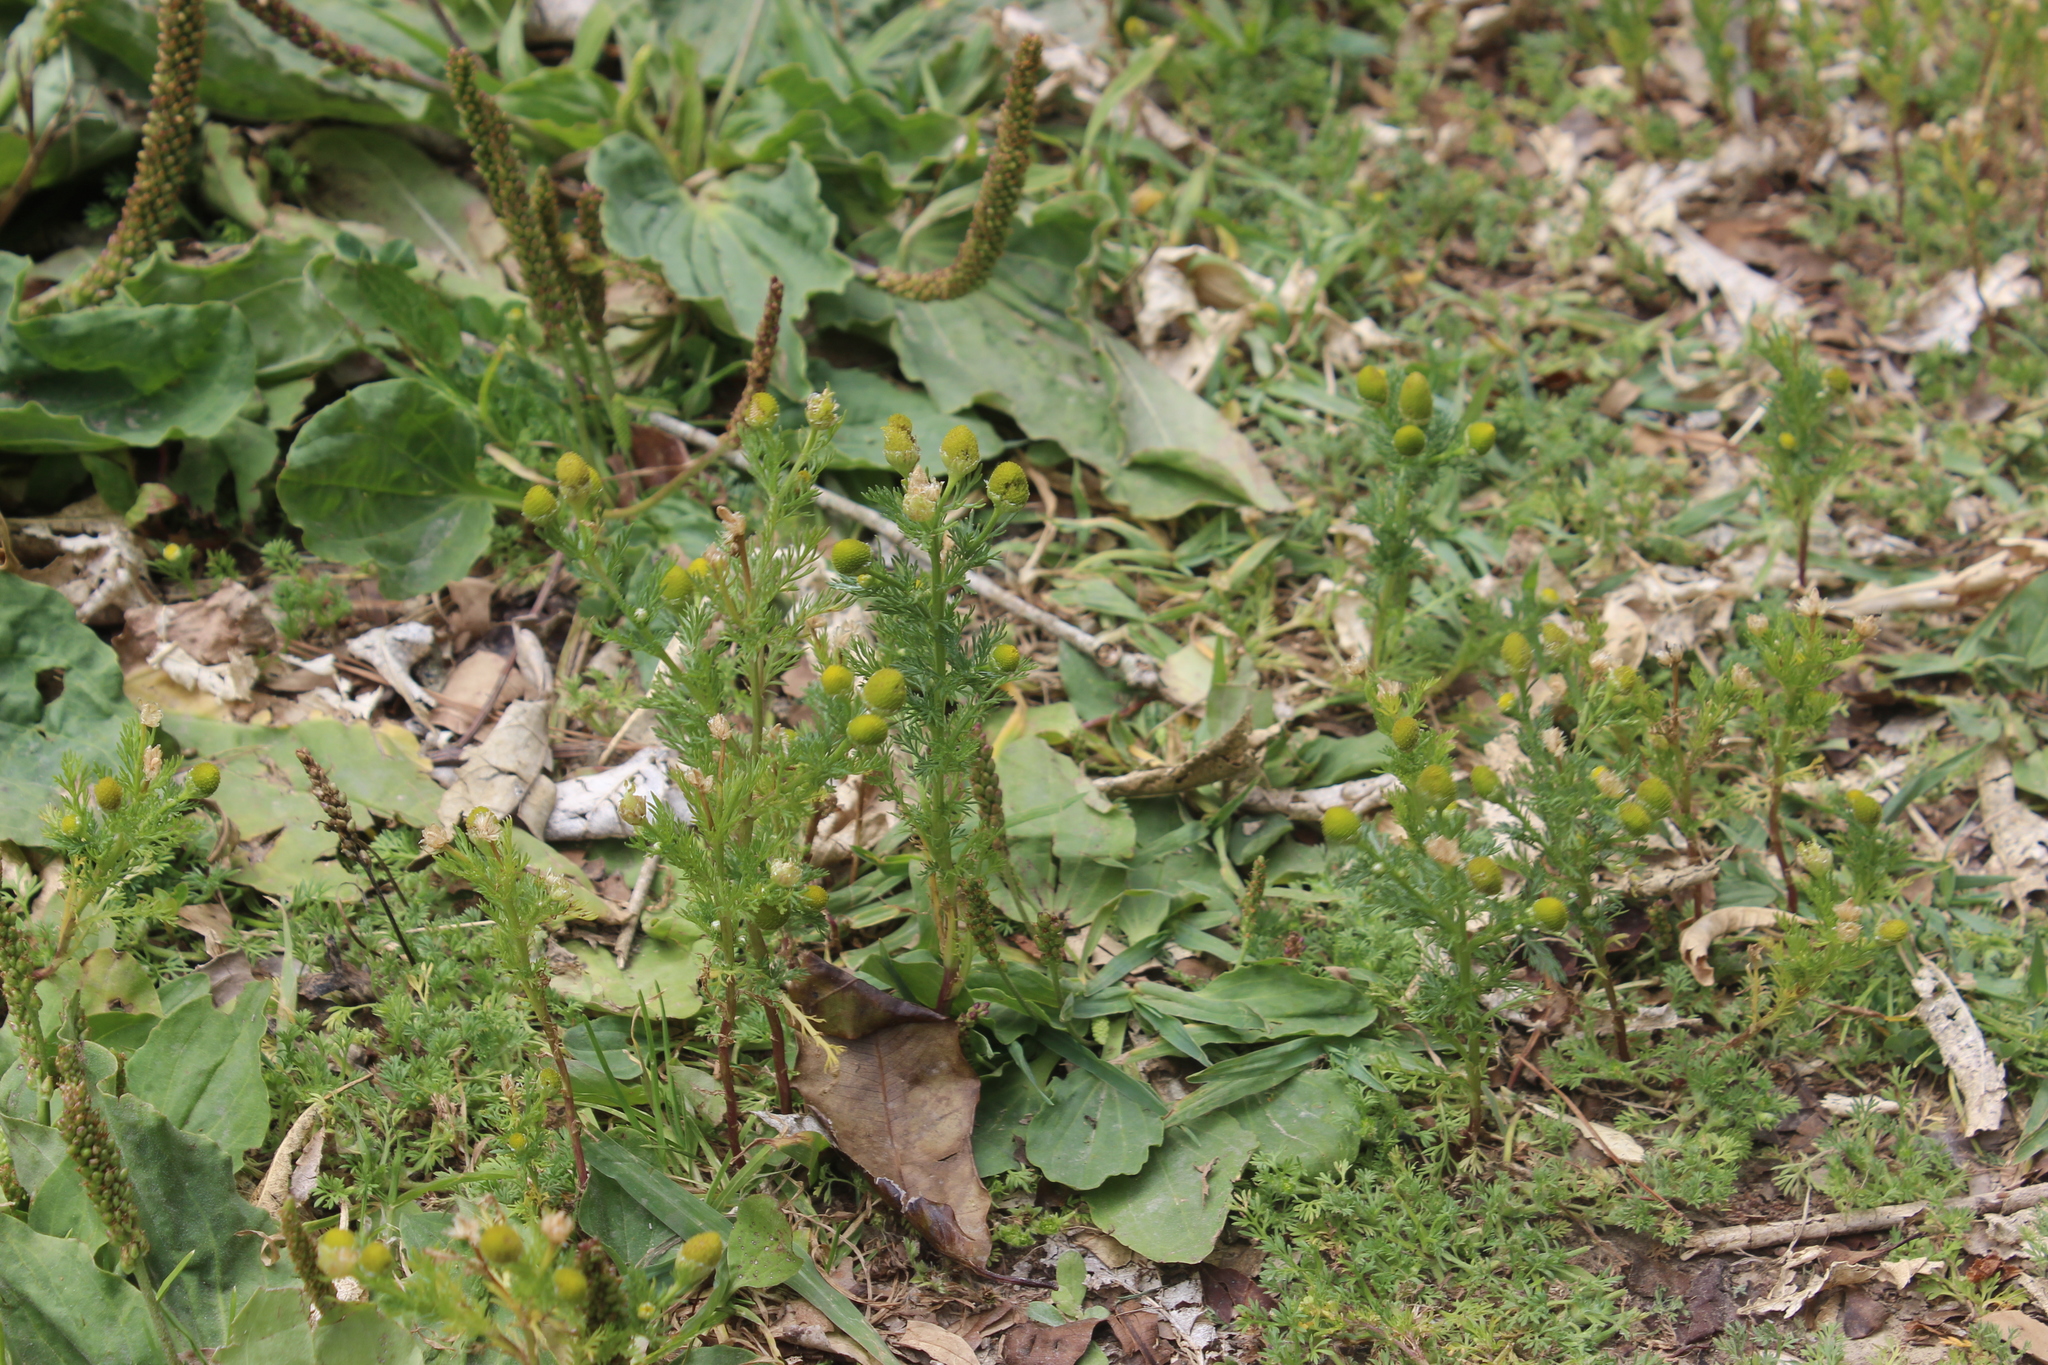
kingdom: Plantae
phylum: Tracheophyta
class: Magnoliopsida
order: Asterales
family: Asteraceae
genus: Matricaria
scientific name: Matricaria discoidea
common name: Disc mayweed
